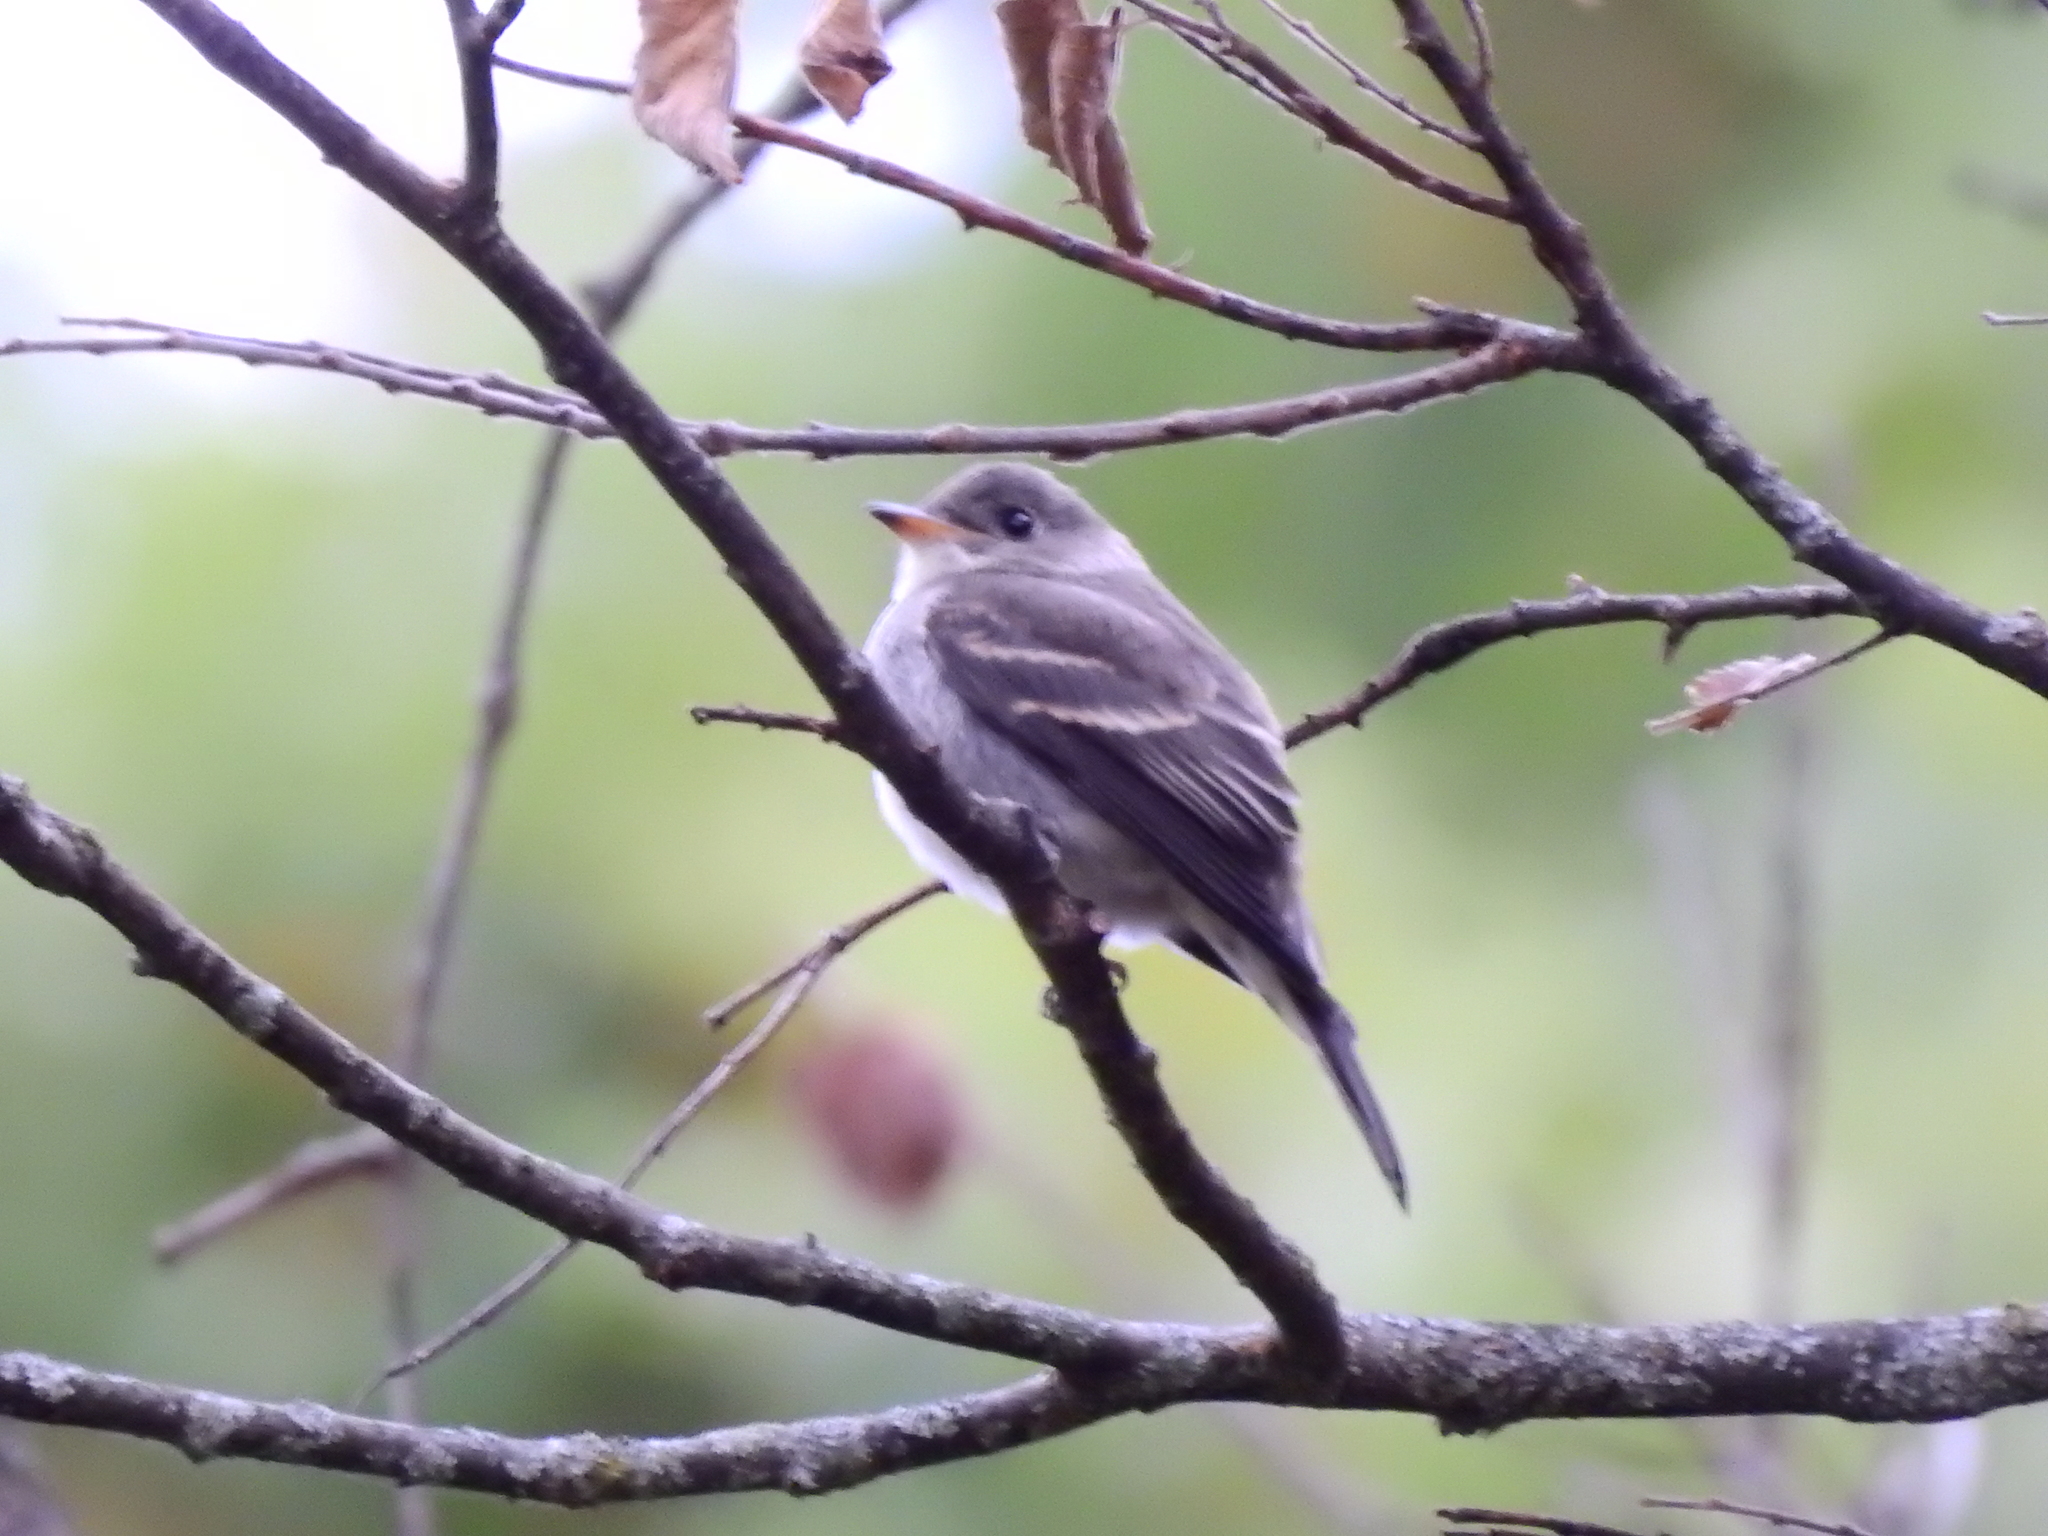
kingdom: Animalia
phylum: Chordata
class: Aves
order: Passeriformes
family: Tyrannidae
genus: Contopus
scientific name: Contopus virens
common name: Eastern wood-pewee
